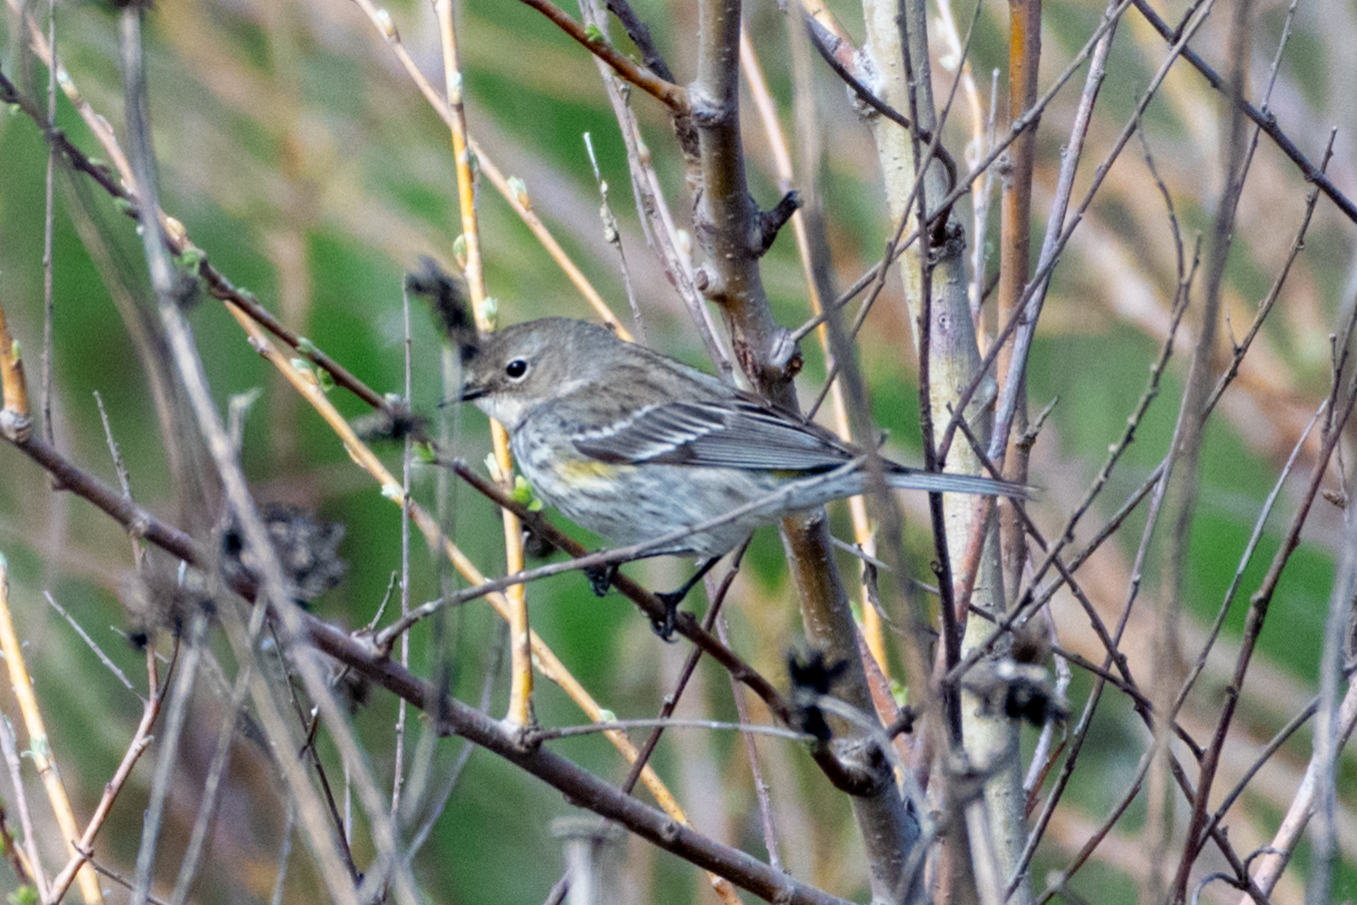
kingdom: Animalia
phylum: Chordata
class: Aves
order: Passeriformes
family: Parulidae
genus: Setophaga
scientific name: Setophaga coronata
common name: Myrtle warbler
